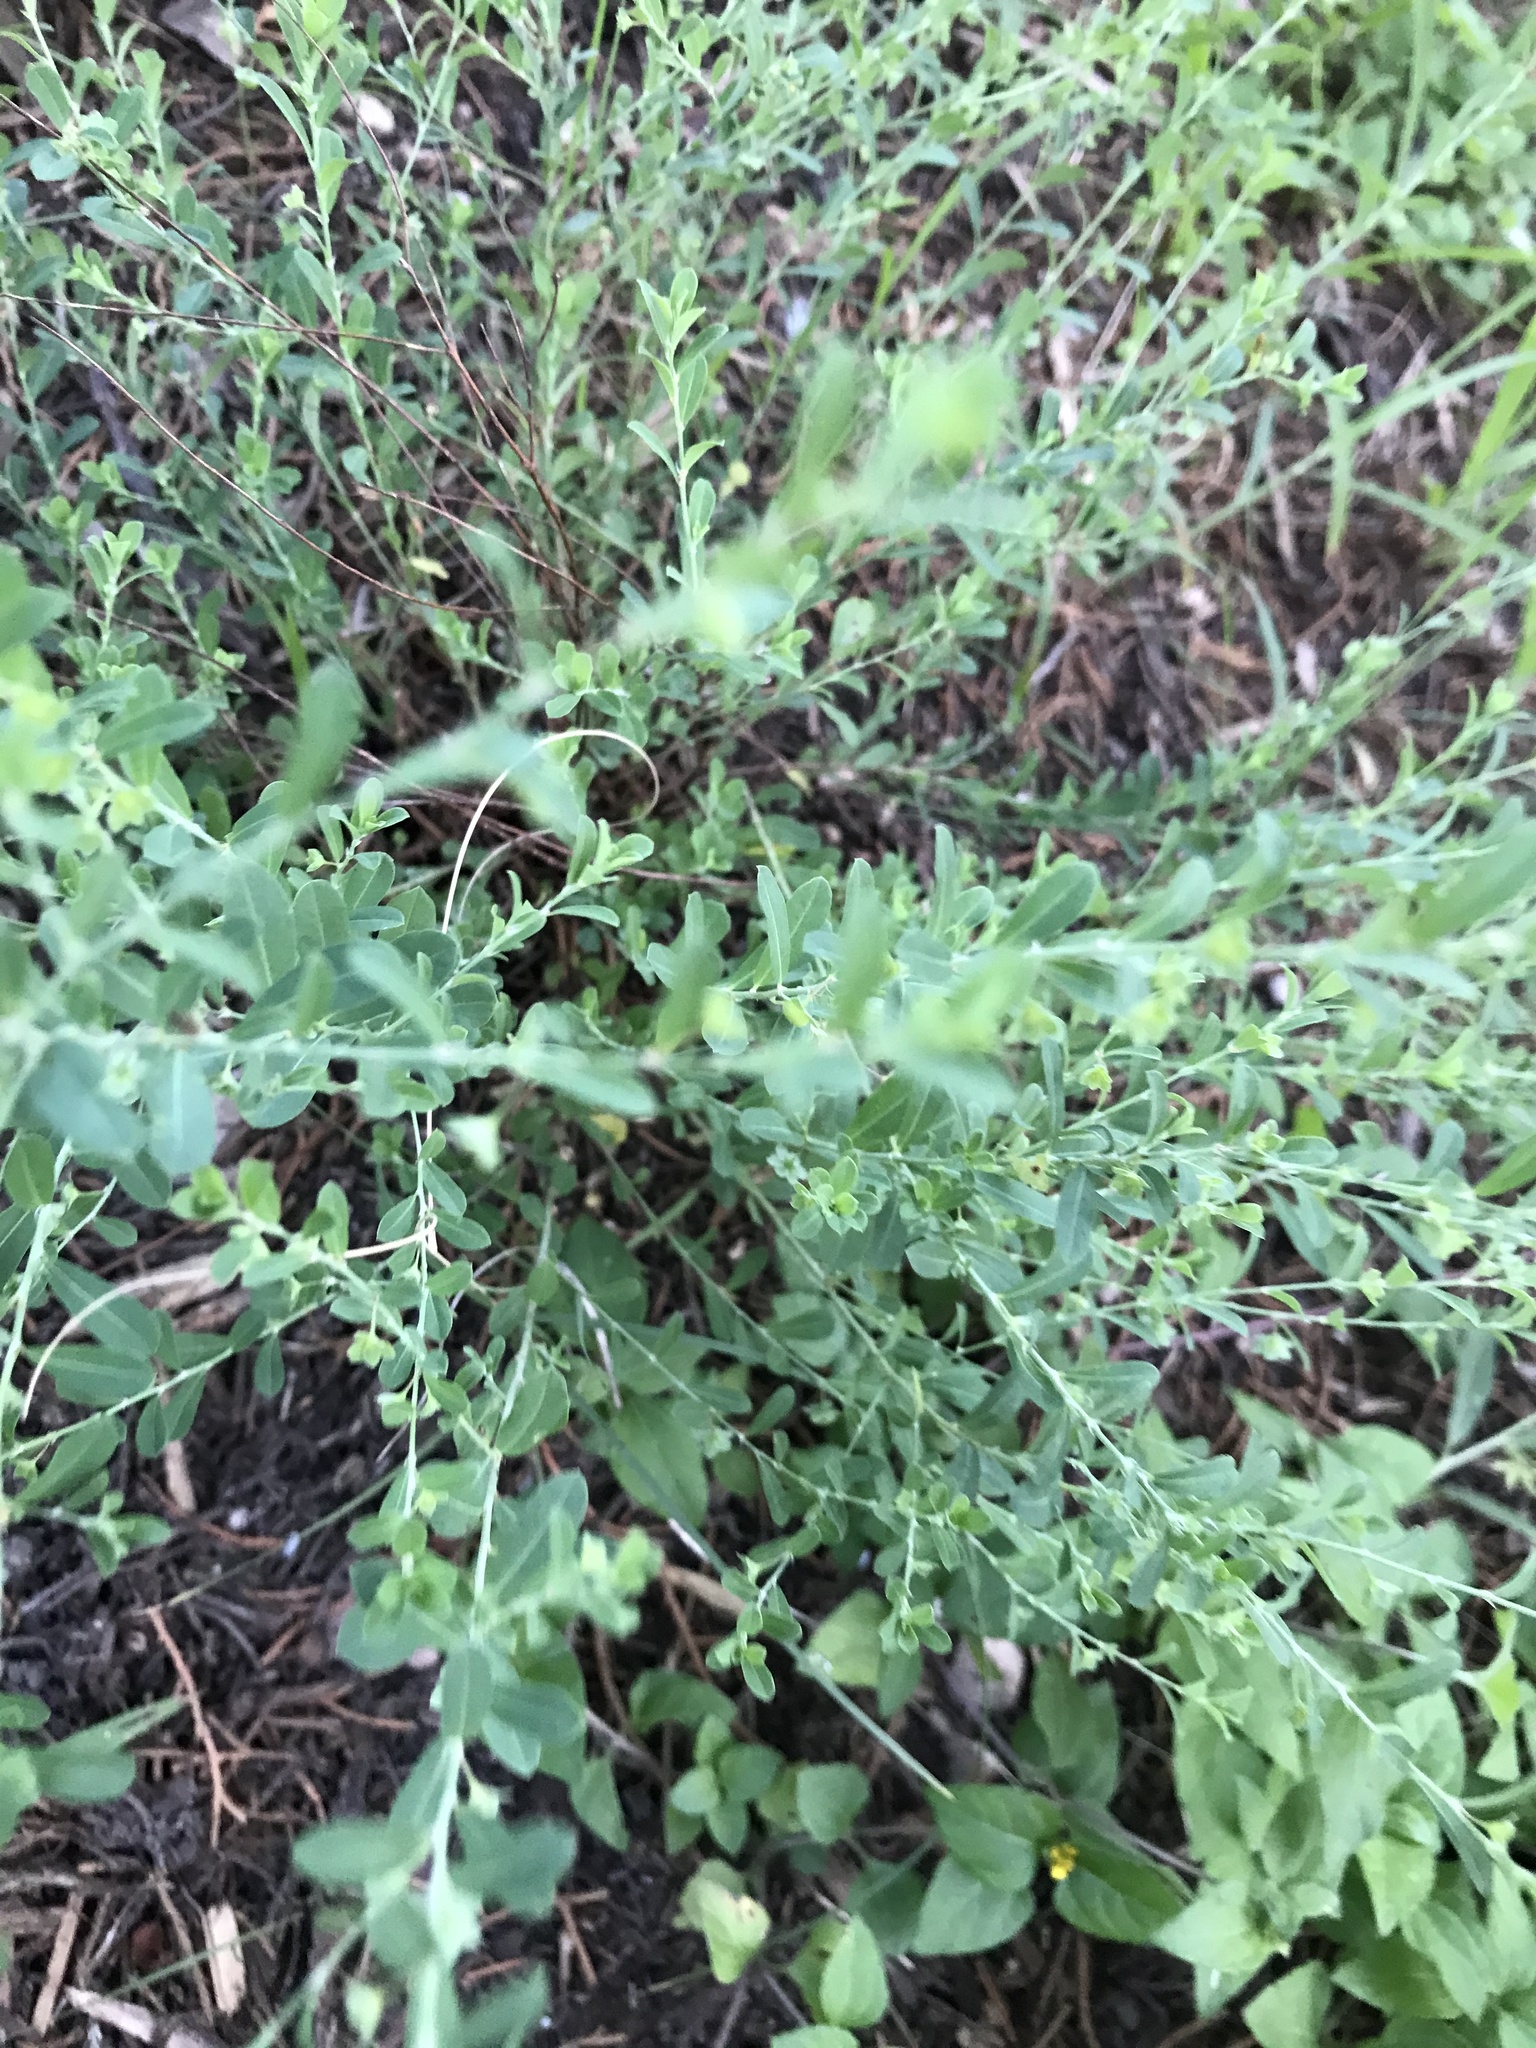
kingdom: Plantae
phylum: Tracheophyta
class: Magnoliopsida
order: Malpighiales
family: Phyllanthaceae
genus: Phyllanthus
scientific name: Phyllanthus polygonoides
